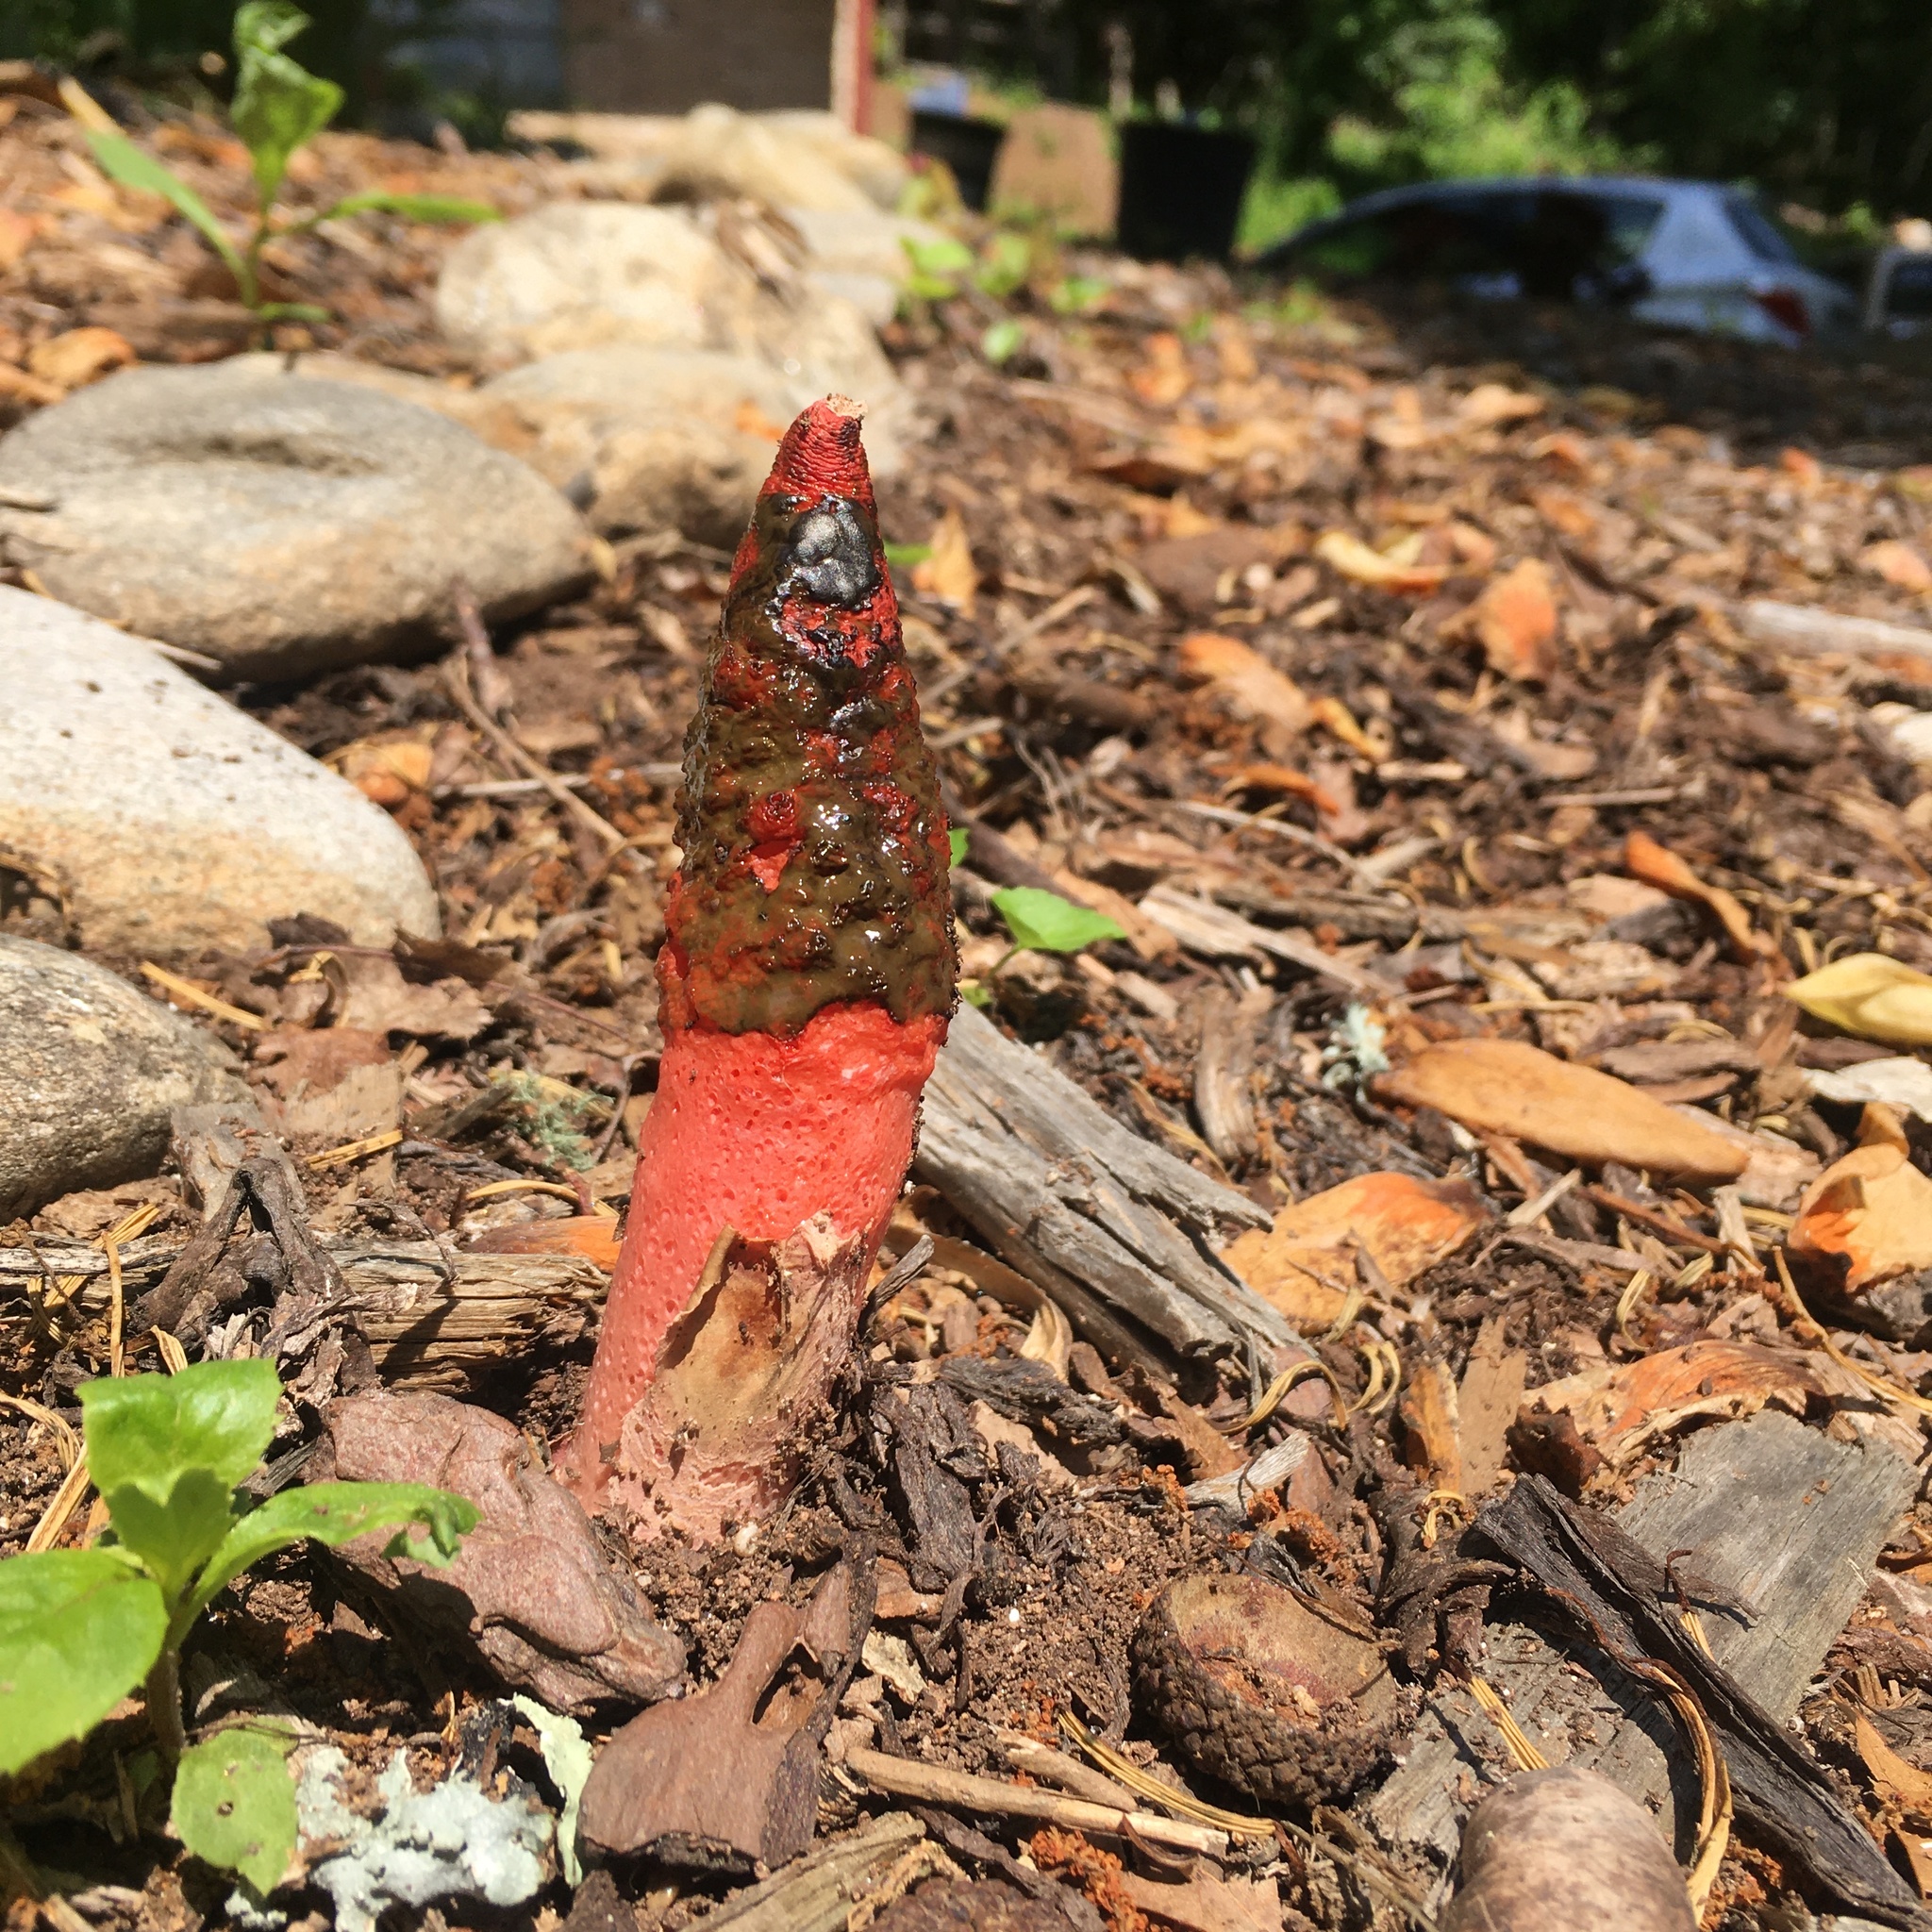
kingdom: Fungi
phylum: Basidiomycota
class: Agaricomycetes
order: Phallales
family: Phallaceae
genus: Mutinus
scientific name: Mutinus elegans
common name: Devil's dipstick
